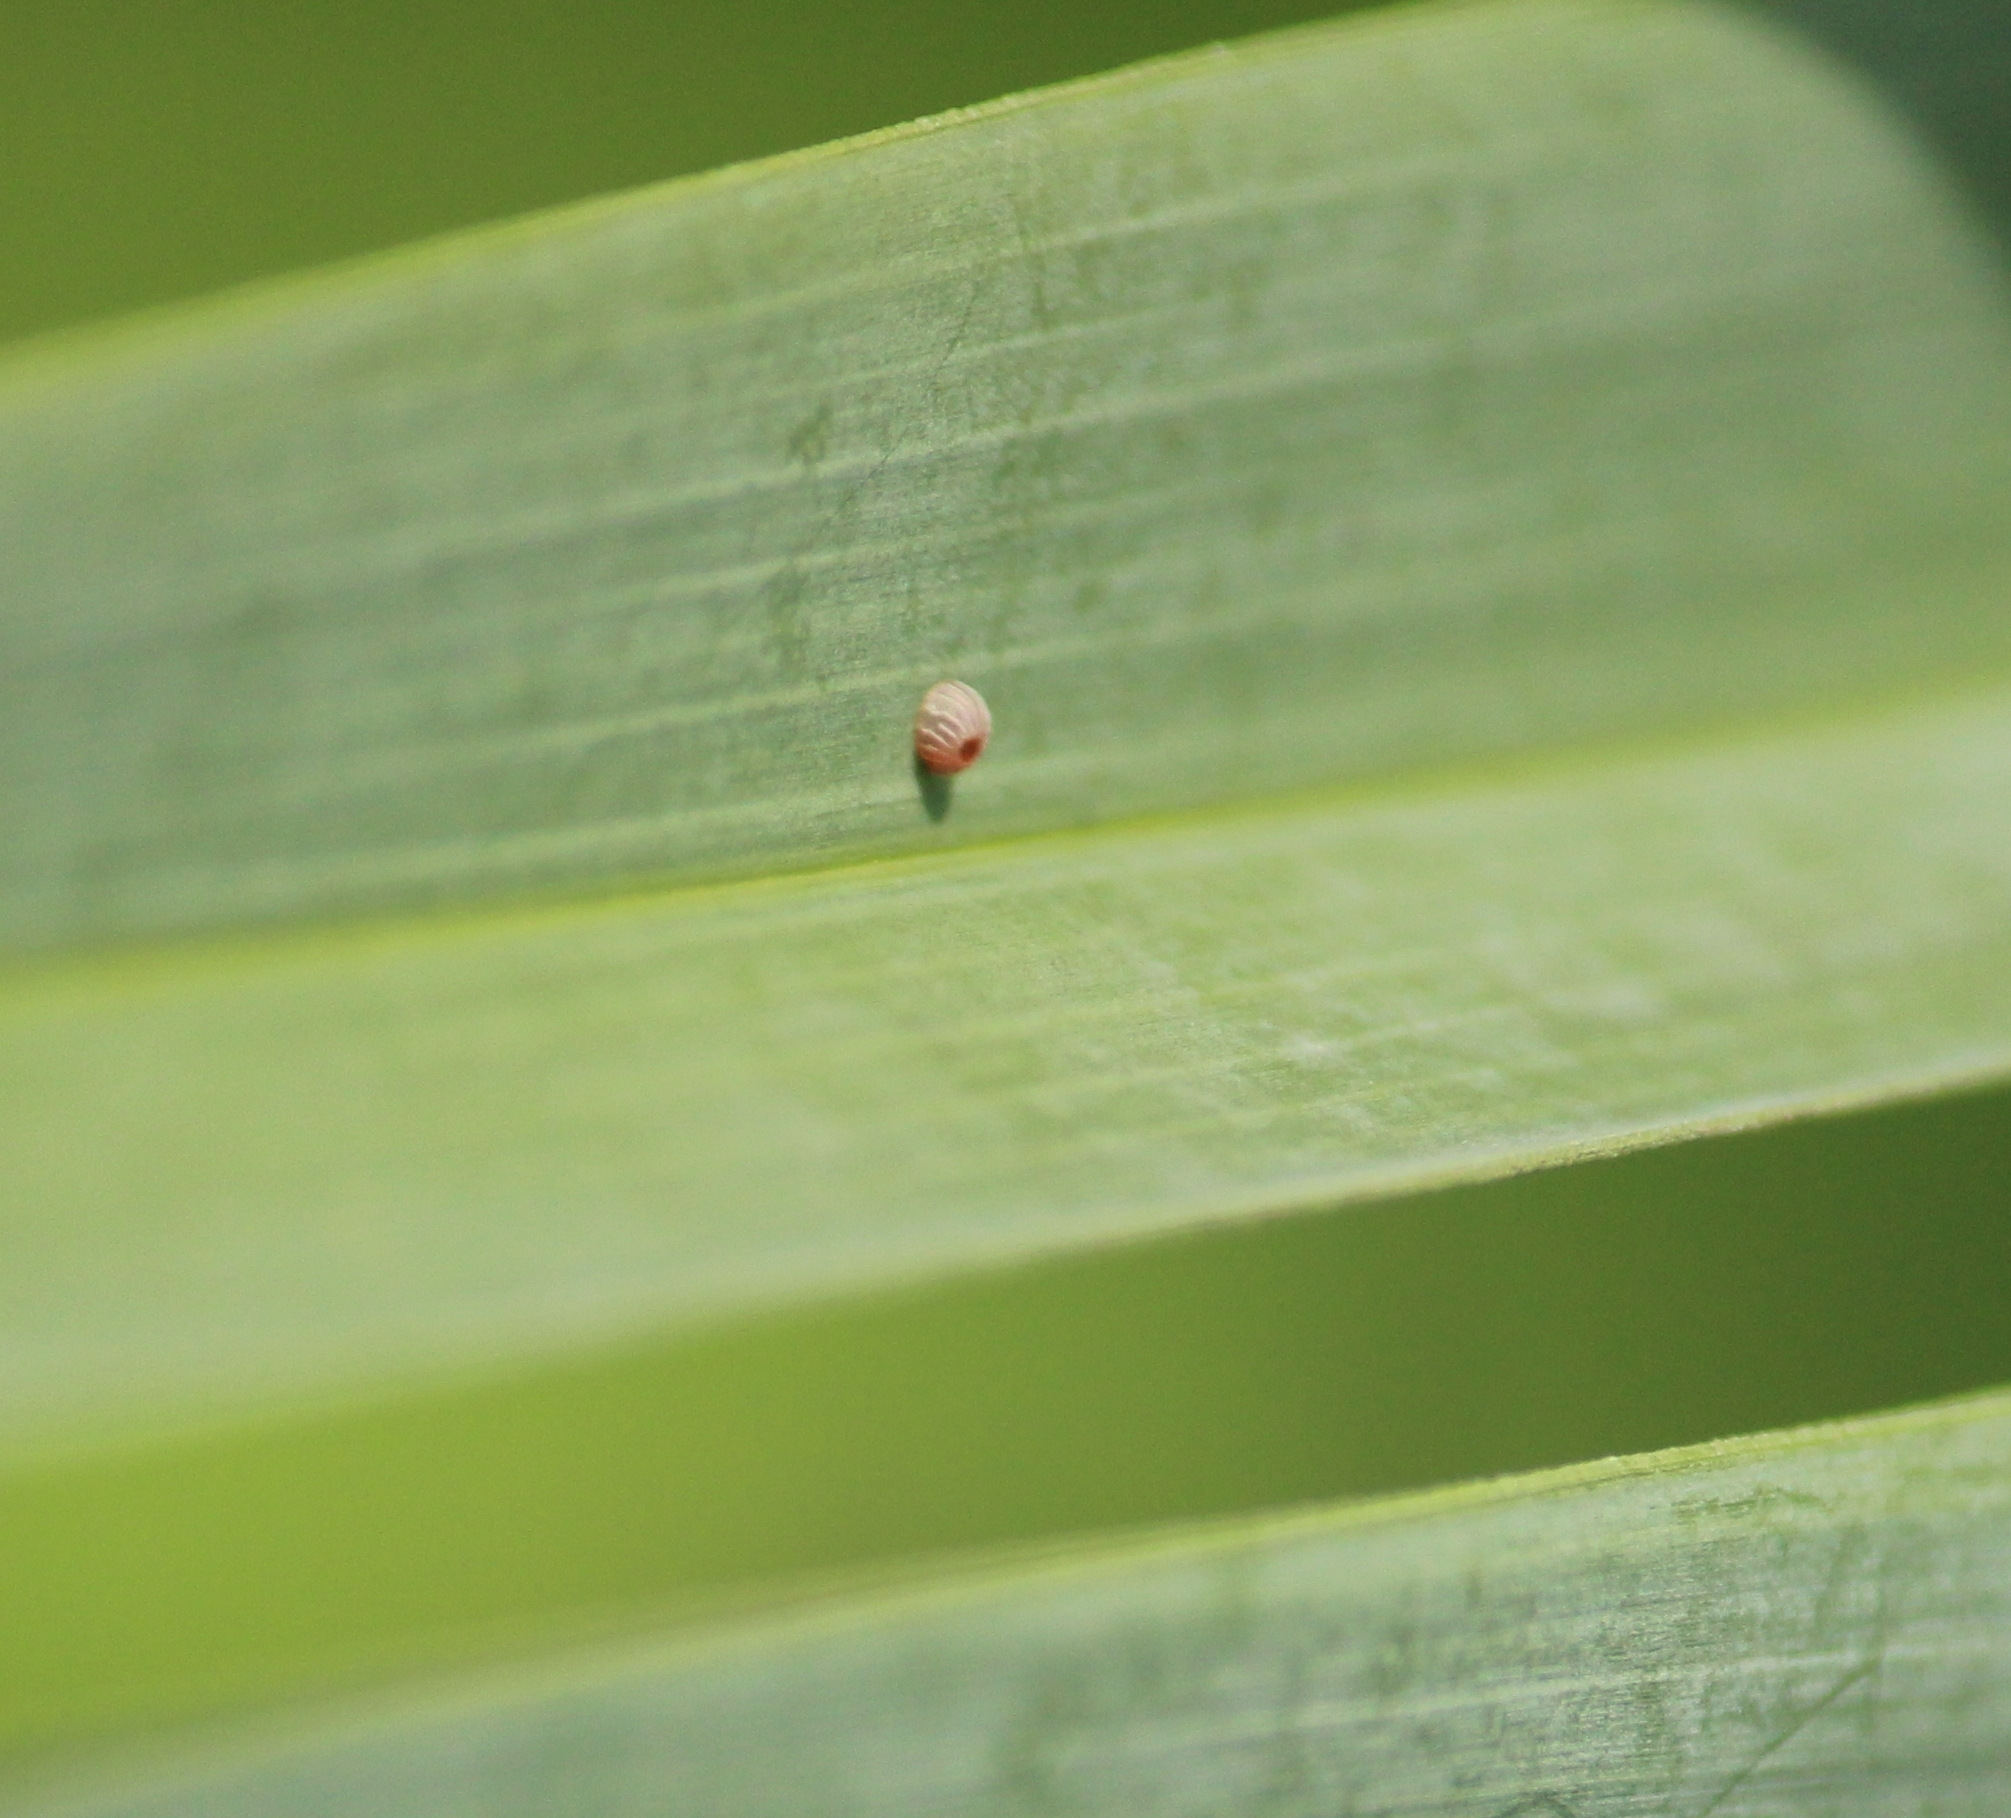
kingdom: Animalia
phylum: Arthropoda
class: Insecta
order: Lepidoptera
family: Hesperiidae
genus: Suastus
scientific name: Suastus gremius
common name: Indian palm bob
